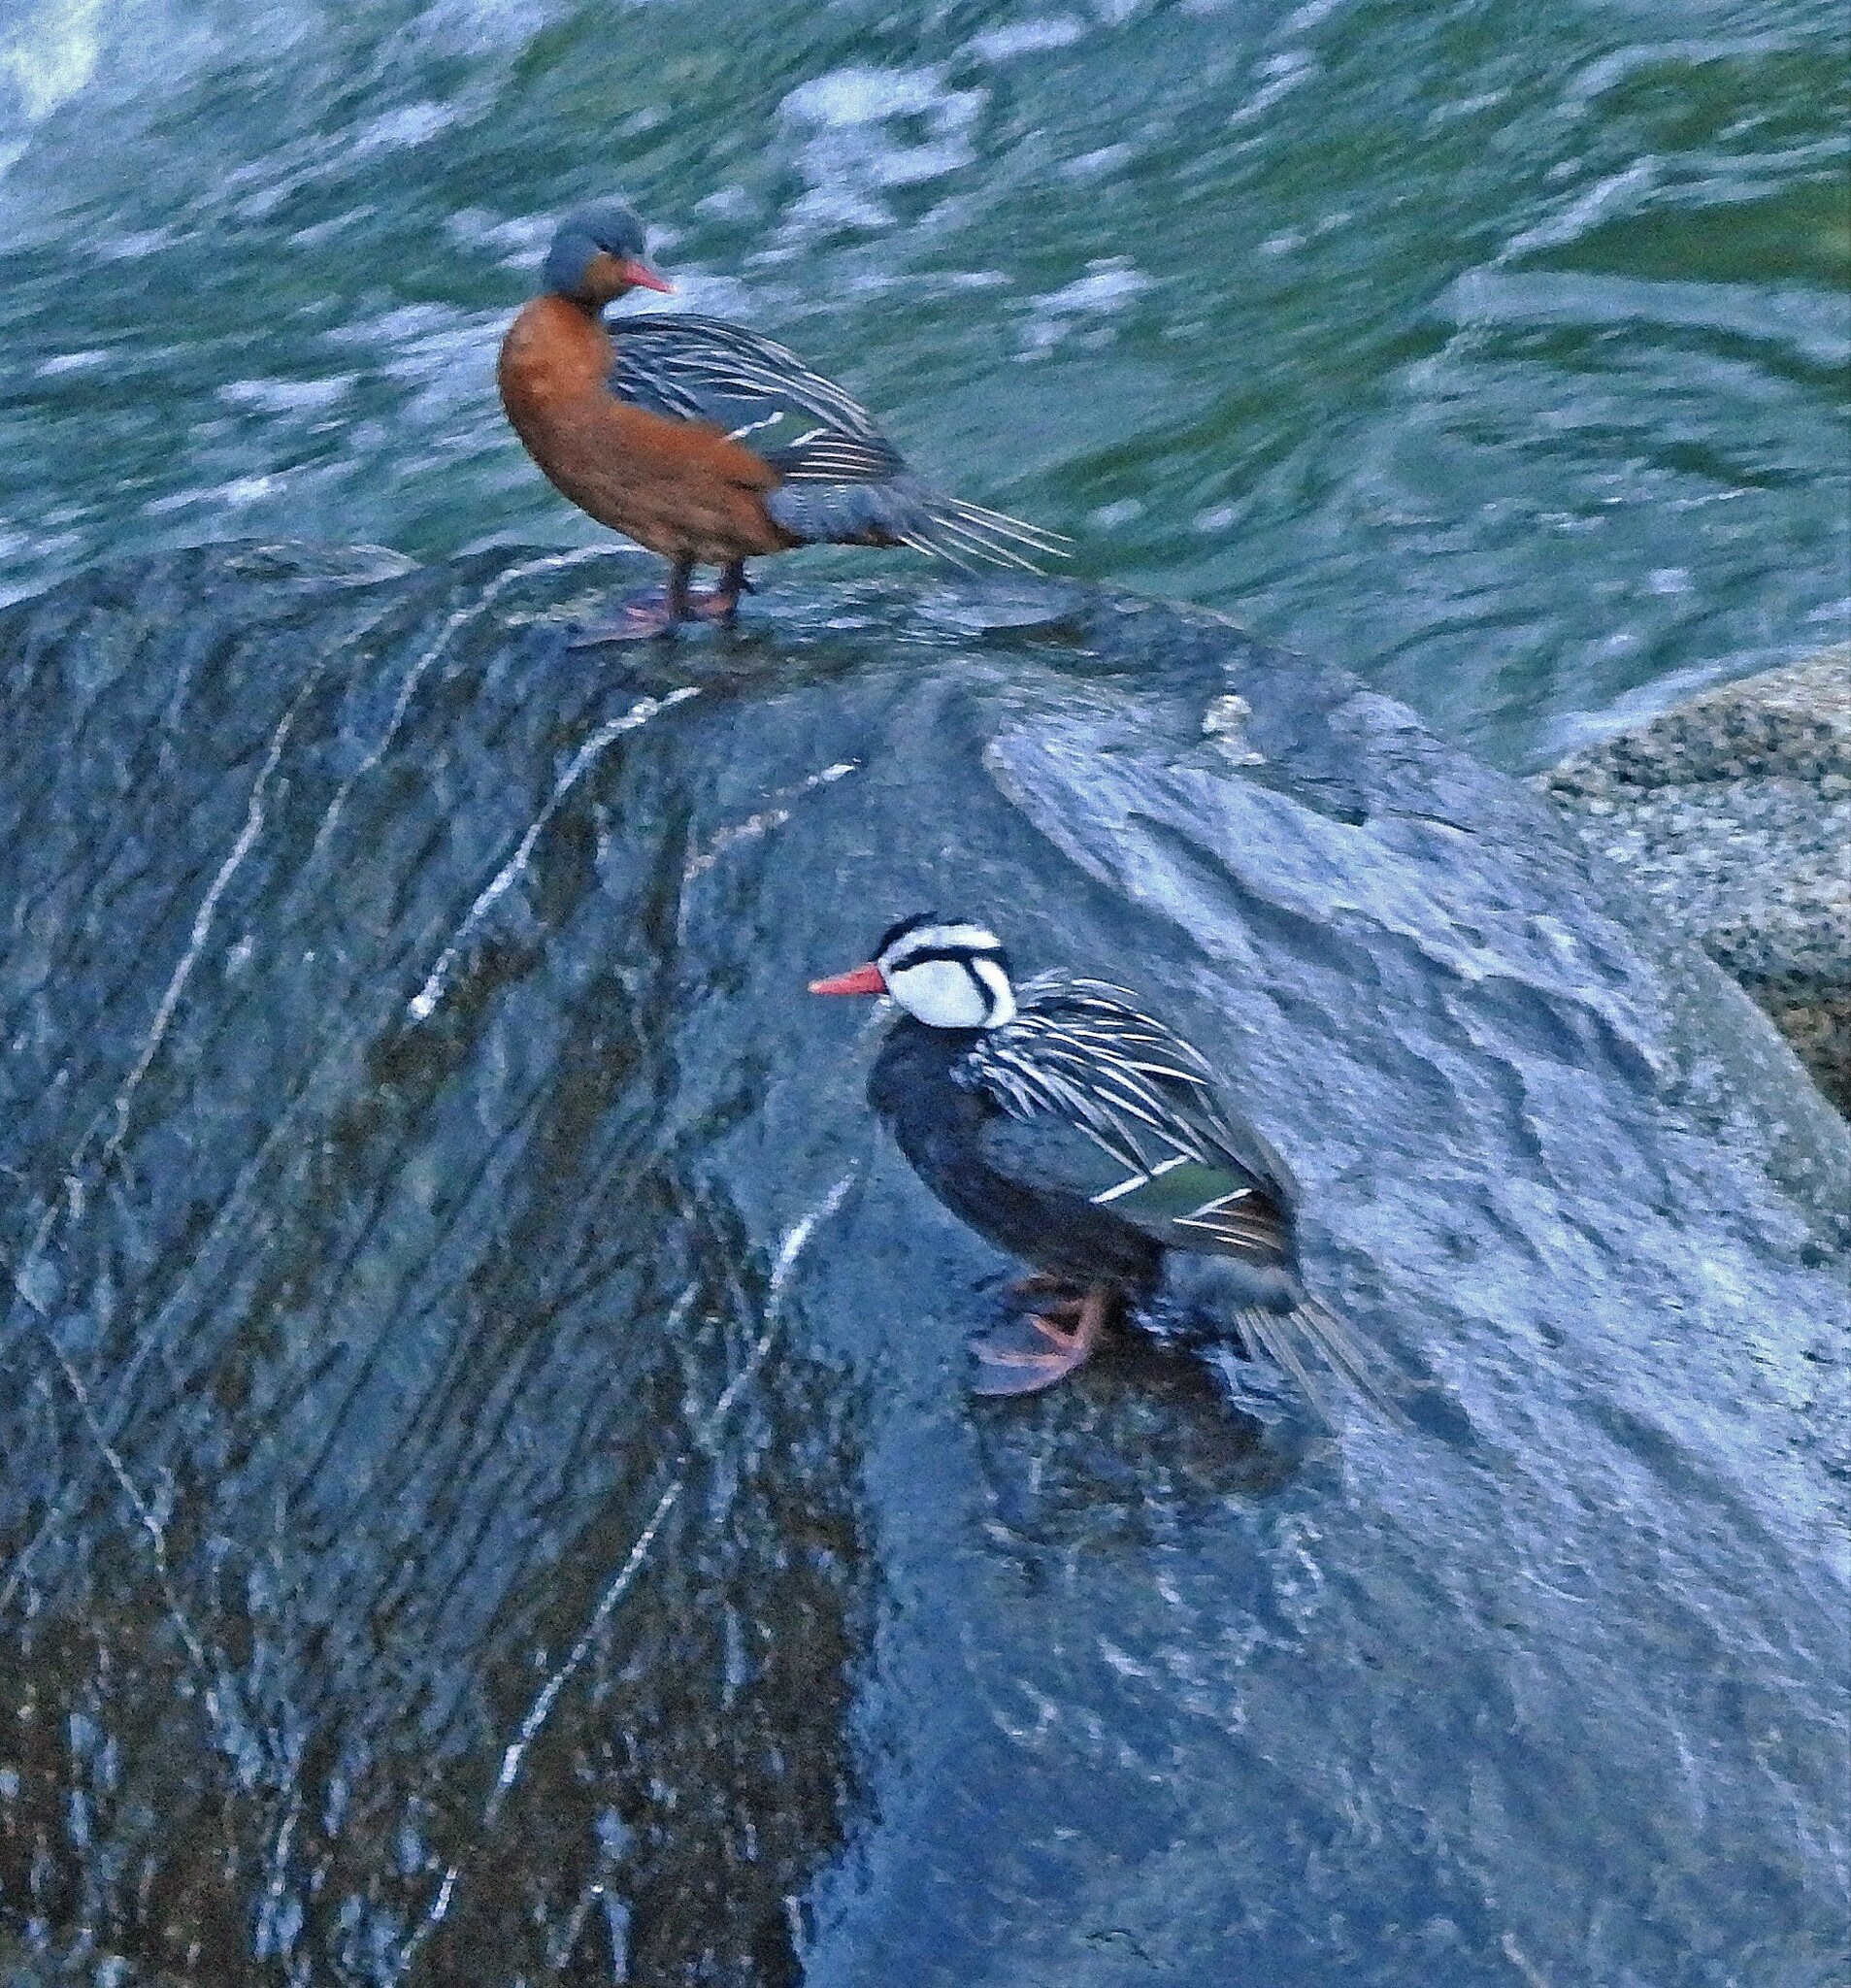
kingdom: Animalia
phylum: Chordata
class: Aves
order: Anseriformes
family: Anatidae
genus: Merganetta
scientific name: Merganetta armata
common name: Torrent duck
